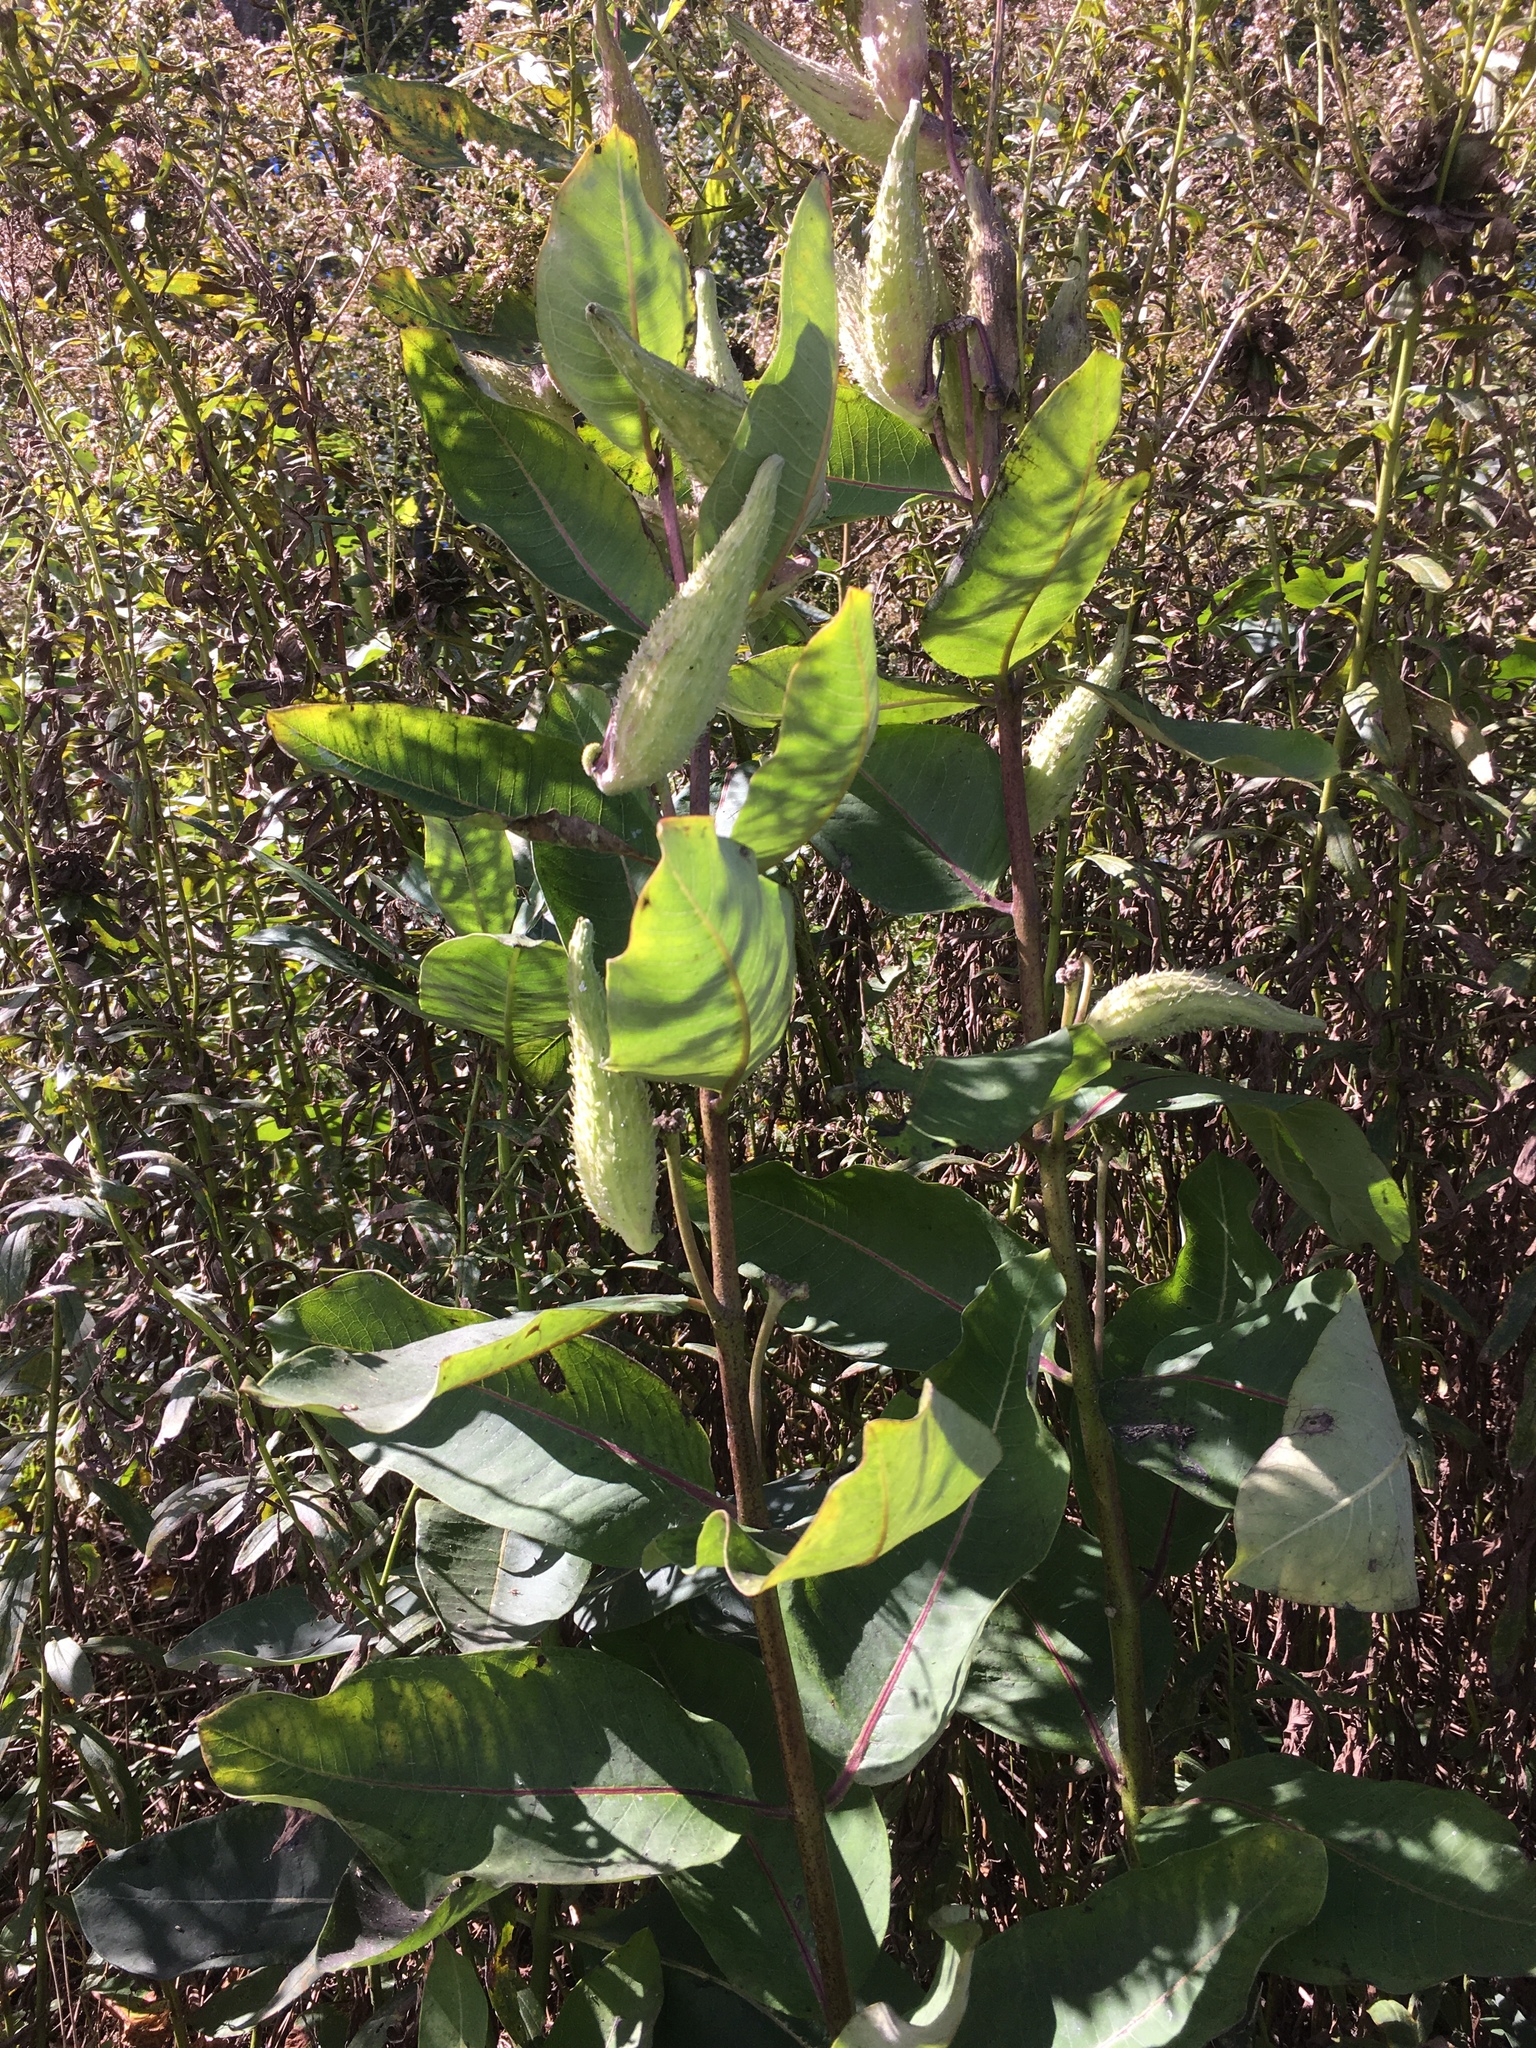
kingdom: Plantae
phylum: Tracheophyta
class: Magnoliopsida
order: Gentianales
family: Apocynaceae
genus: Asclepias
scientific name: Asclepias syriaca
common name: Common milkweed
